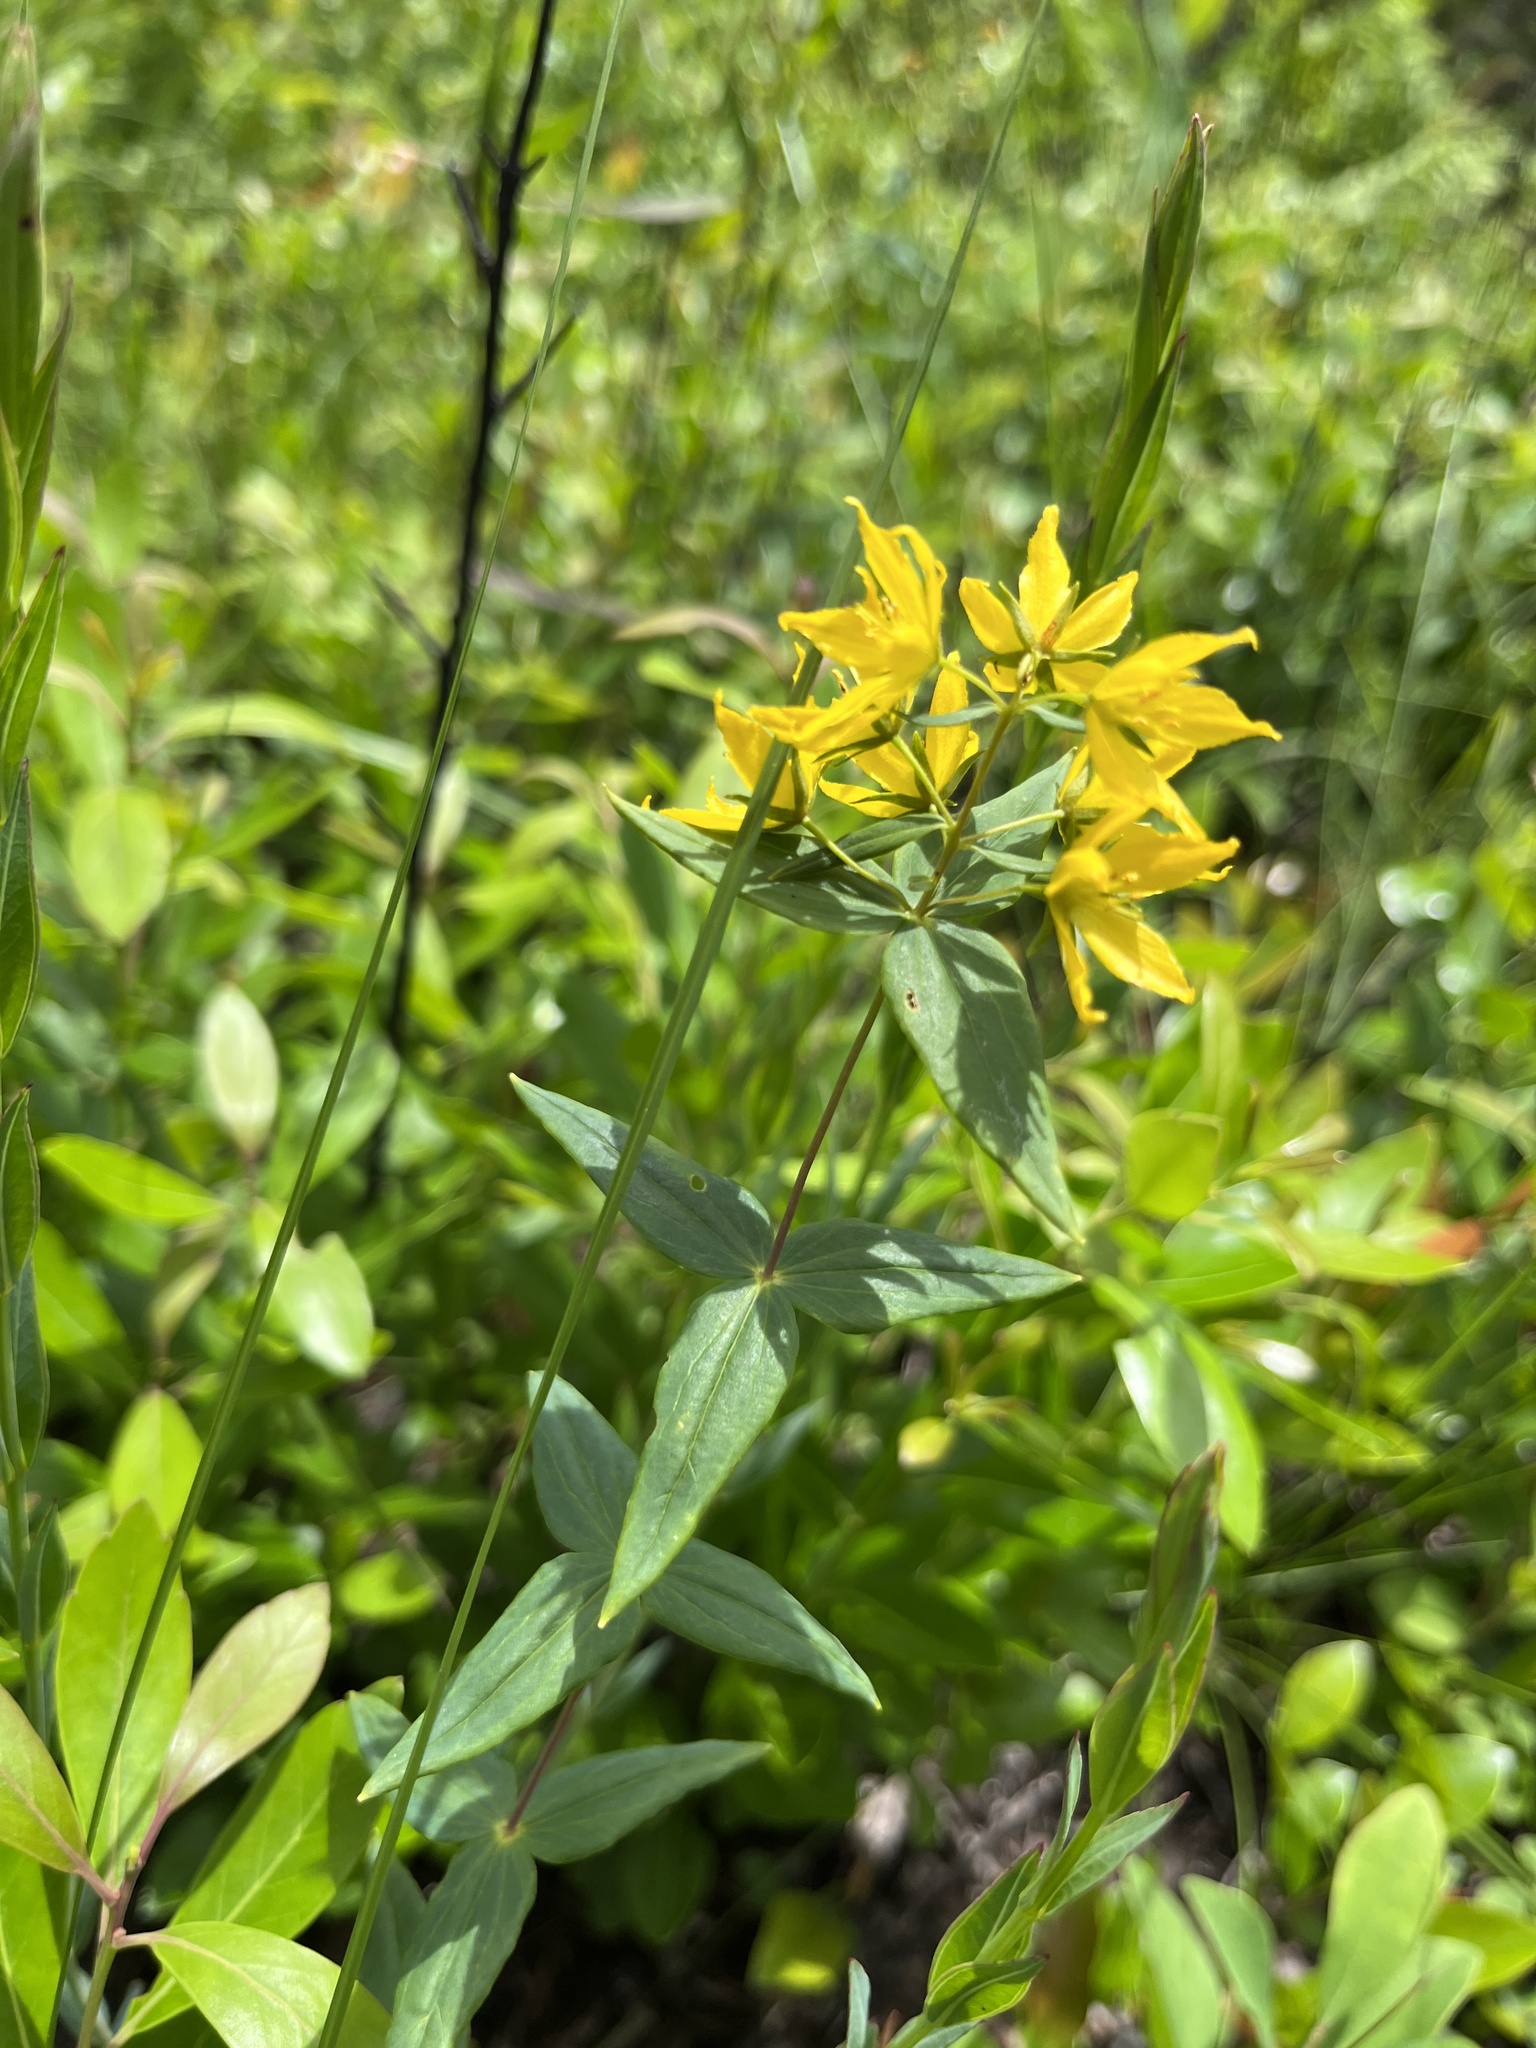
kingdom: Plantae
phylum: Tracheophyta
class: Magnoliopsida
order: Ericales
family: Primulaceae
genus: Lysimachia
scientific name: Lysimachia asperulifolia
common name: Rough-leaf loosestrife
